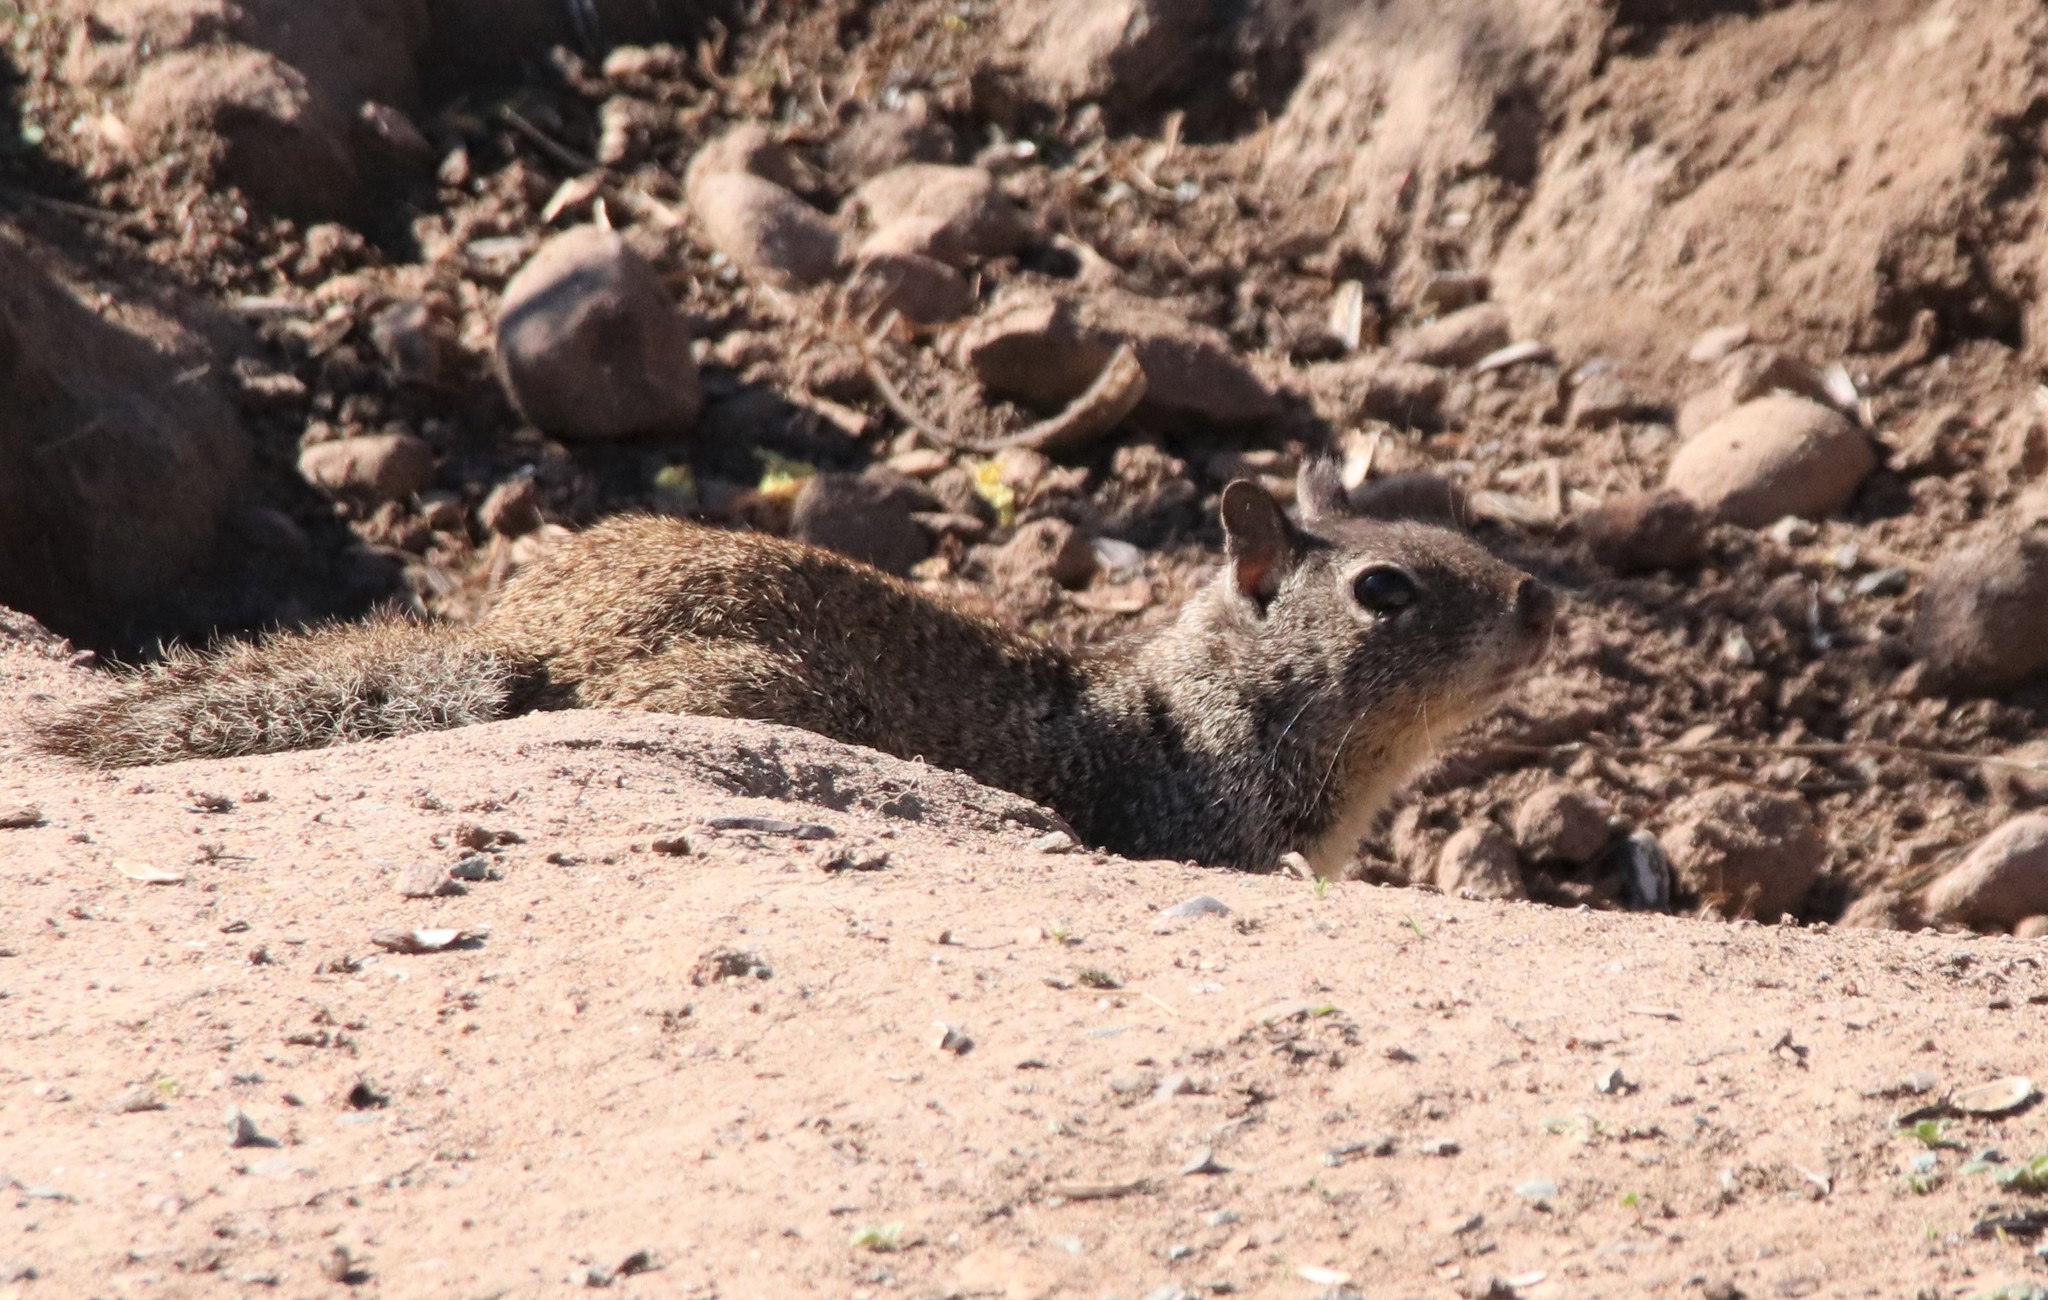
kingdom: Animalia
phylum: Chordata
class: Mammalia
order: Rodentia
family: Sciuridae
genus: Otospermophilus
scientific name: Otospermophilus beecheyi
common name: California ground squirrel
